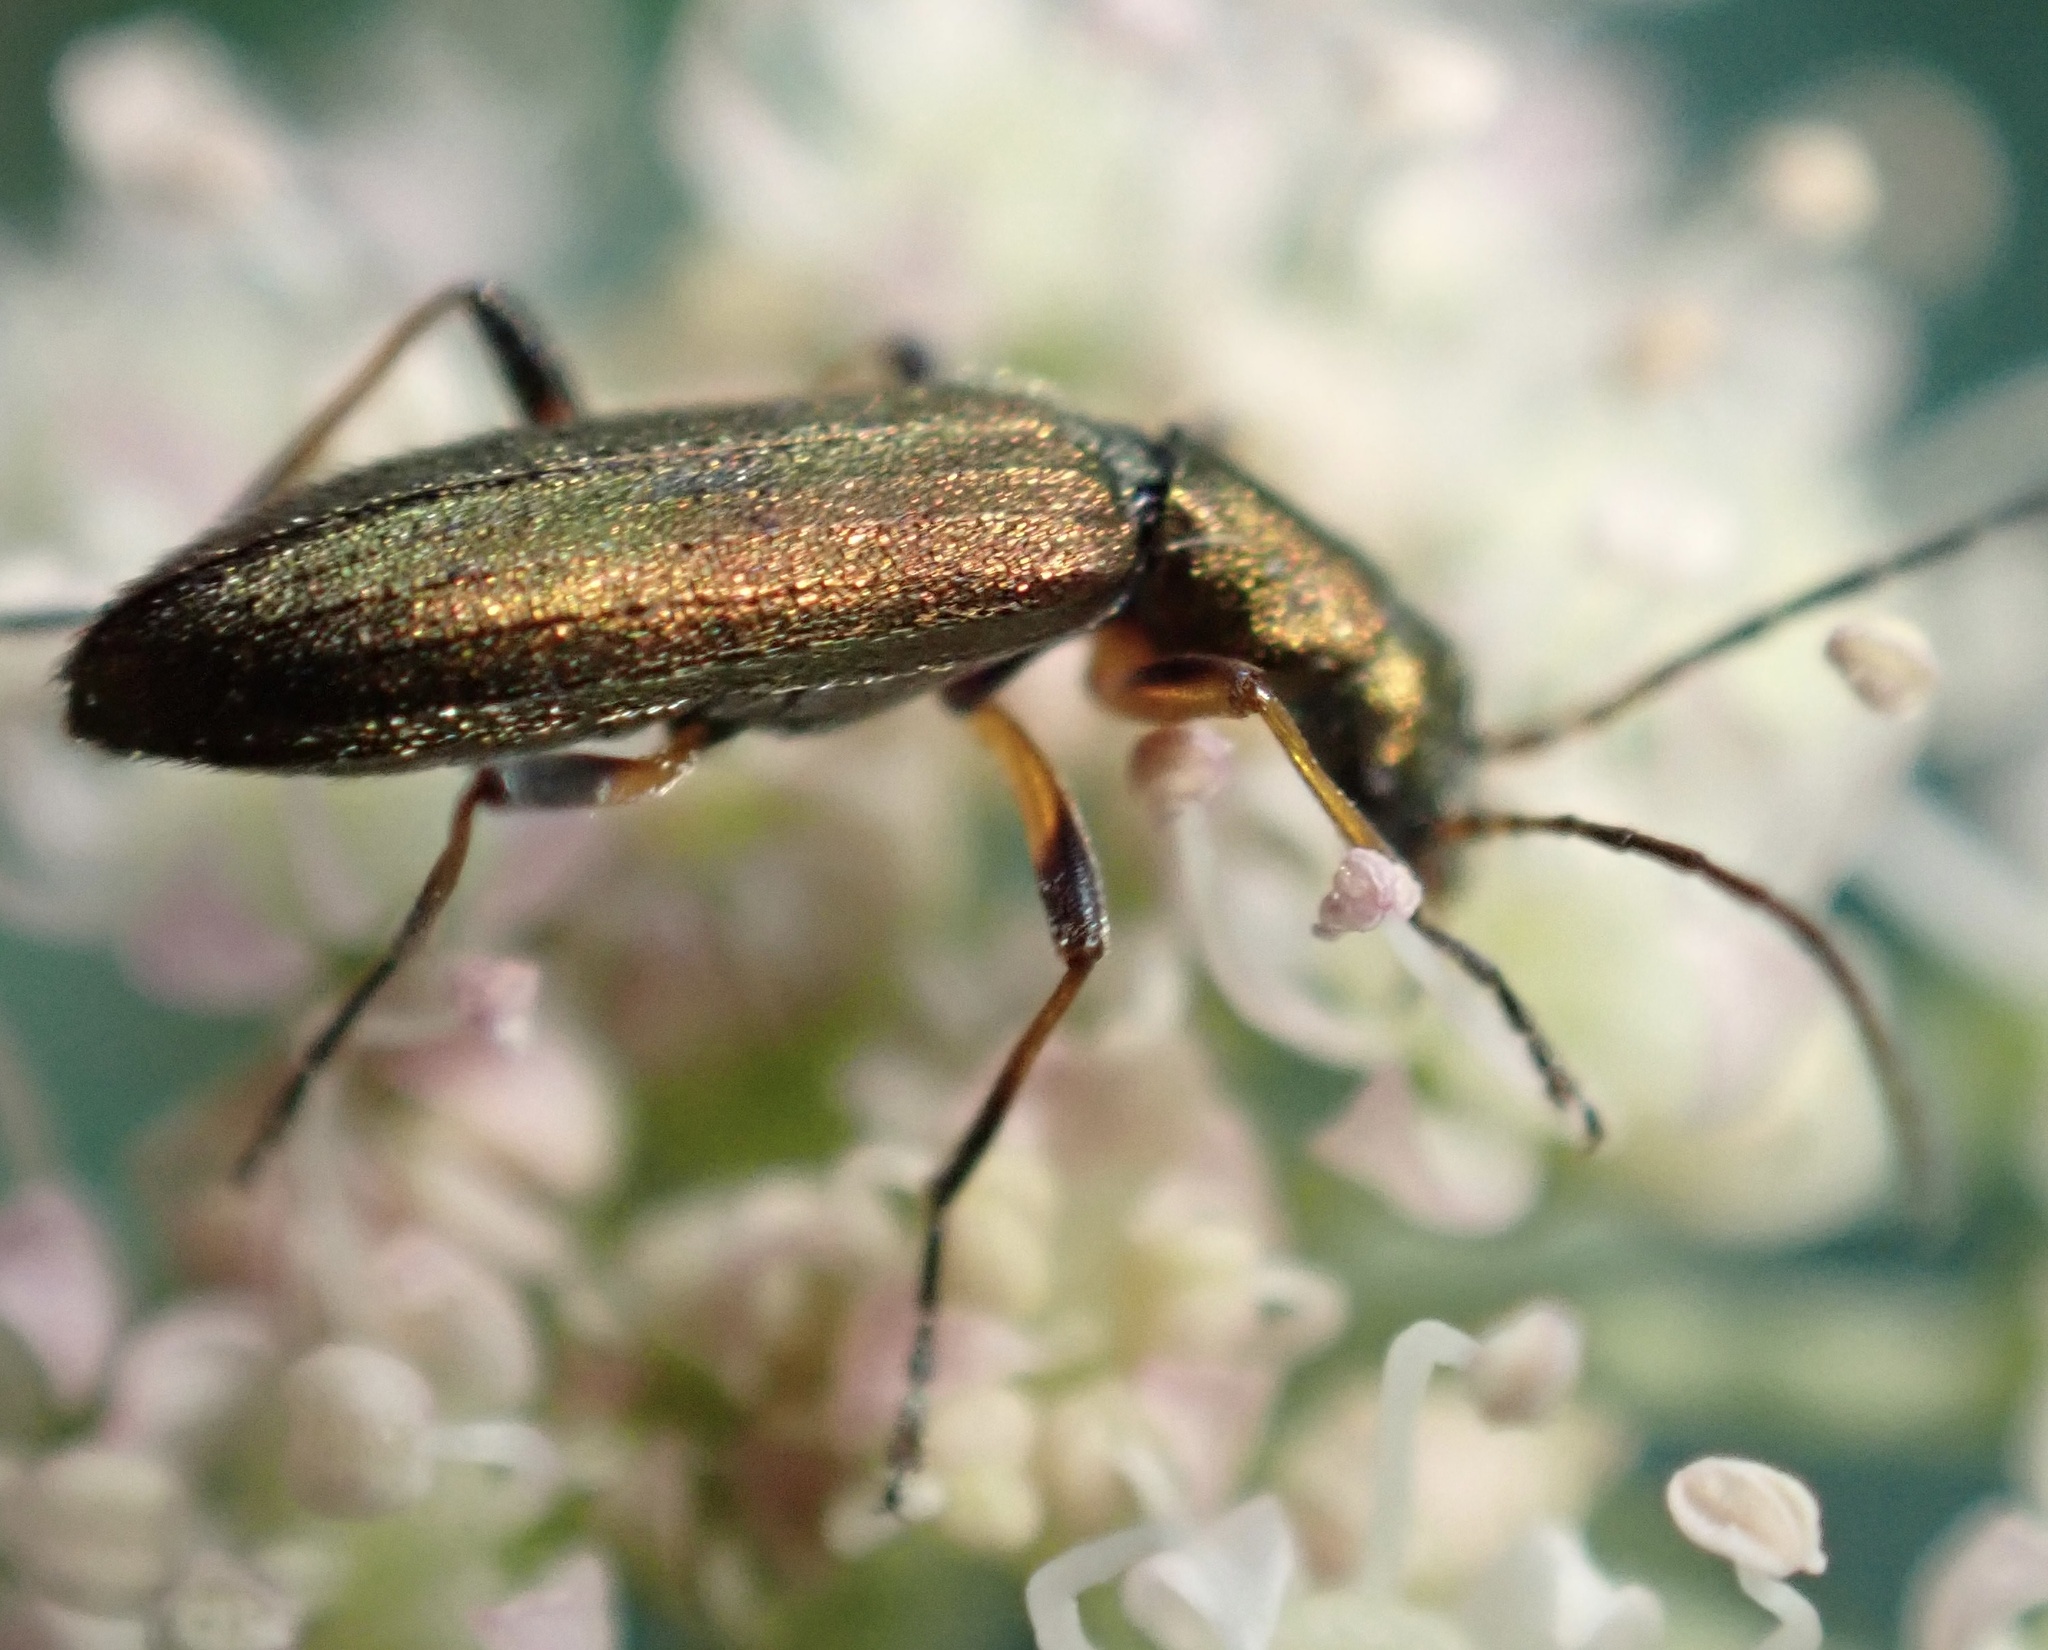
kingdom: Animalia
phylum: Arthropoda
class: Insecta
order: Coleoptera
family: Oedemeridae
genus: Chrysanthia
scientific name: Chrysanthia geniculata
